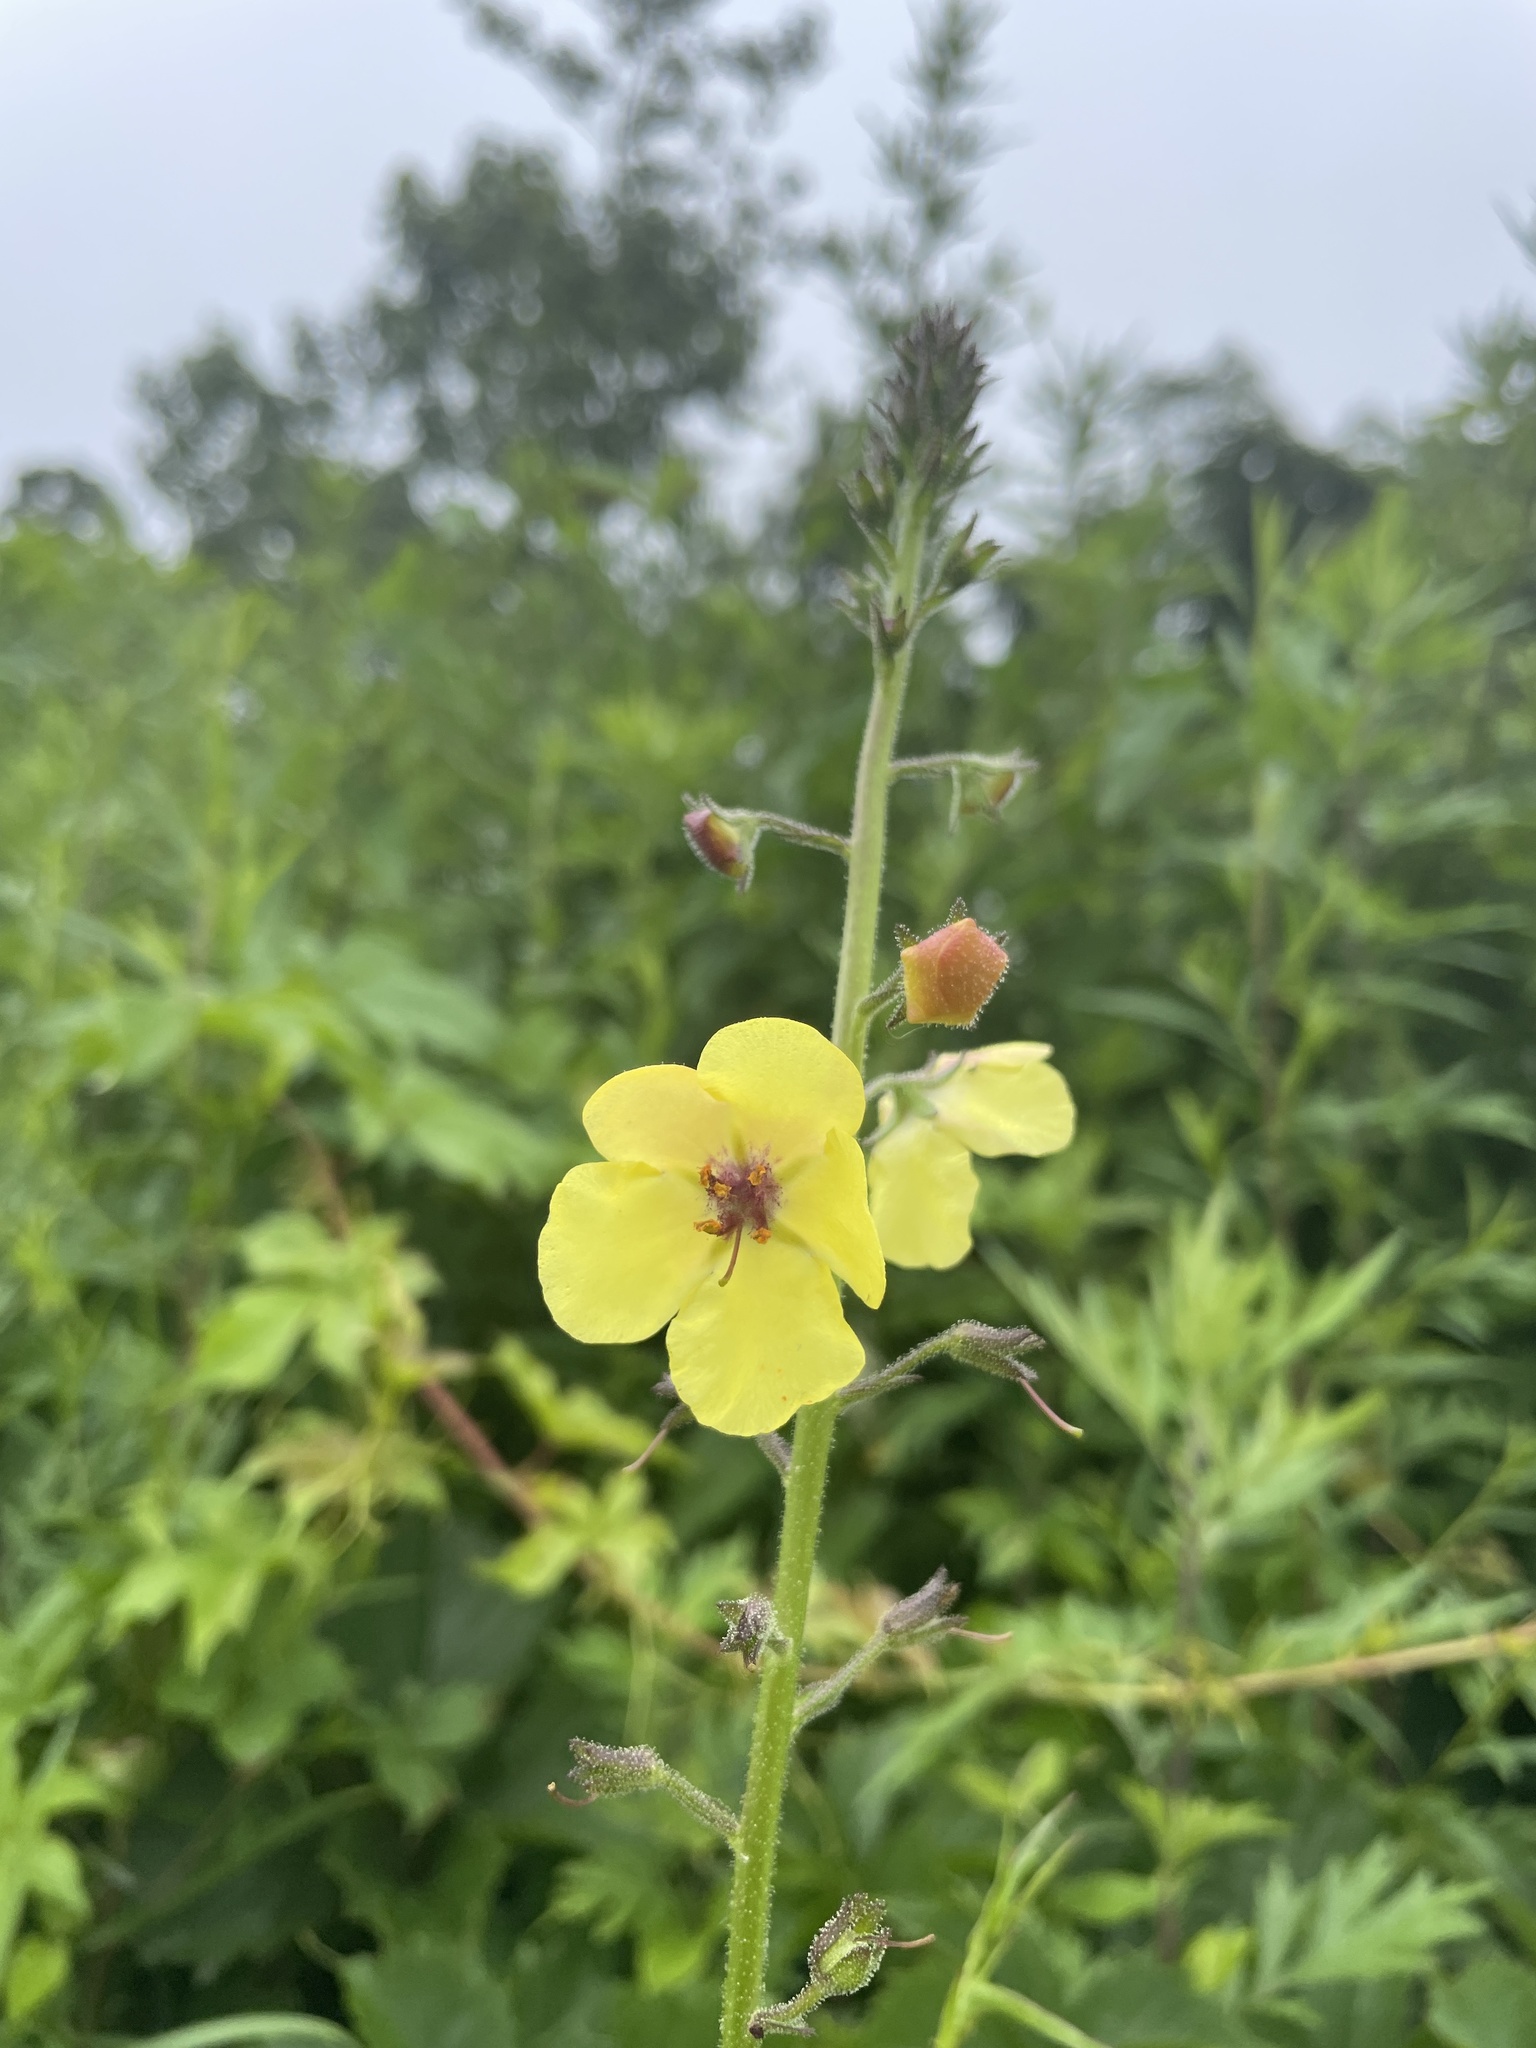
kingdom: Plantae
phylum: Tracheophyta
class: Magnoliopsida
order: Lamiales
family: Scrophulariaceae
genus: Verbascum
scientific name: Verbascum blattaria
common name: Moth mullein
